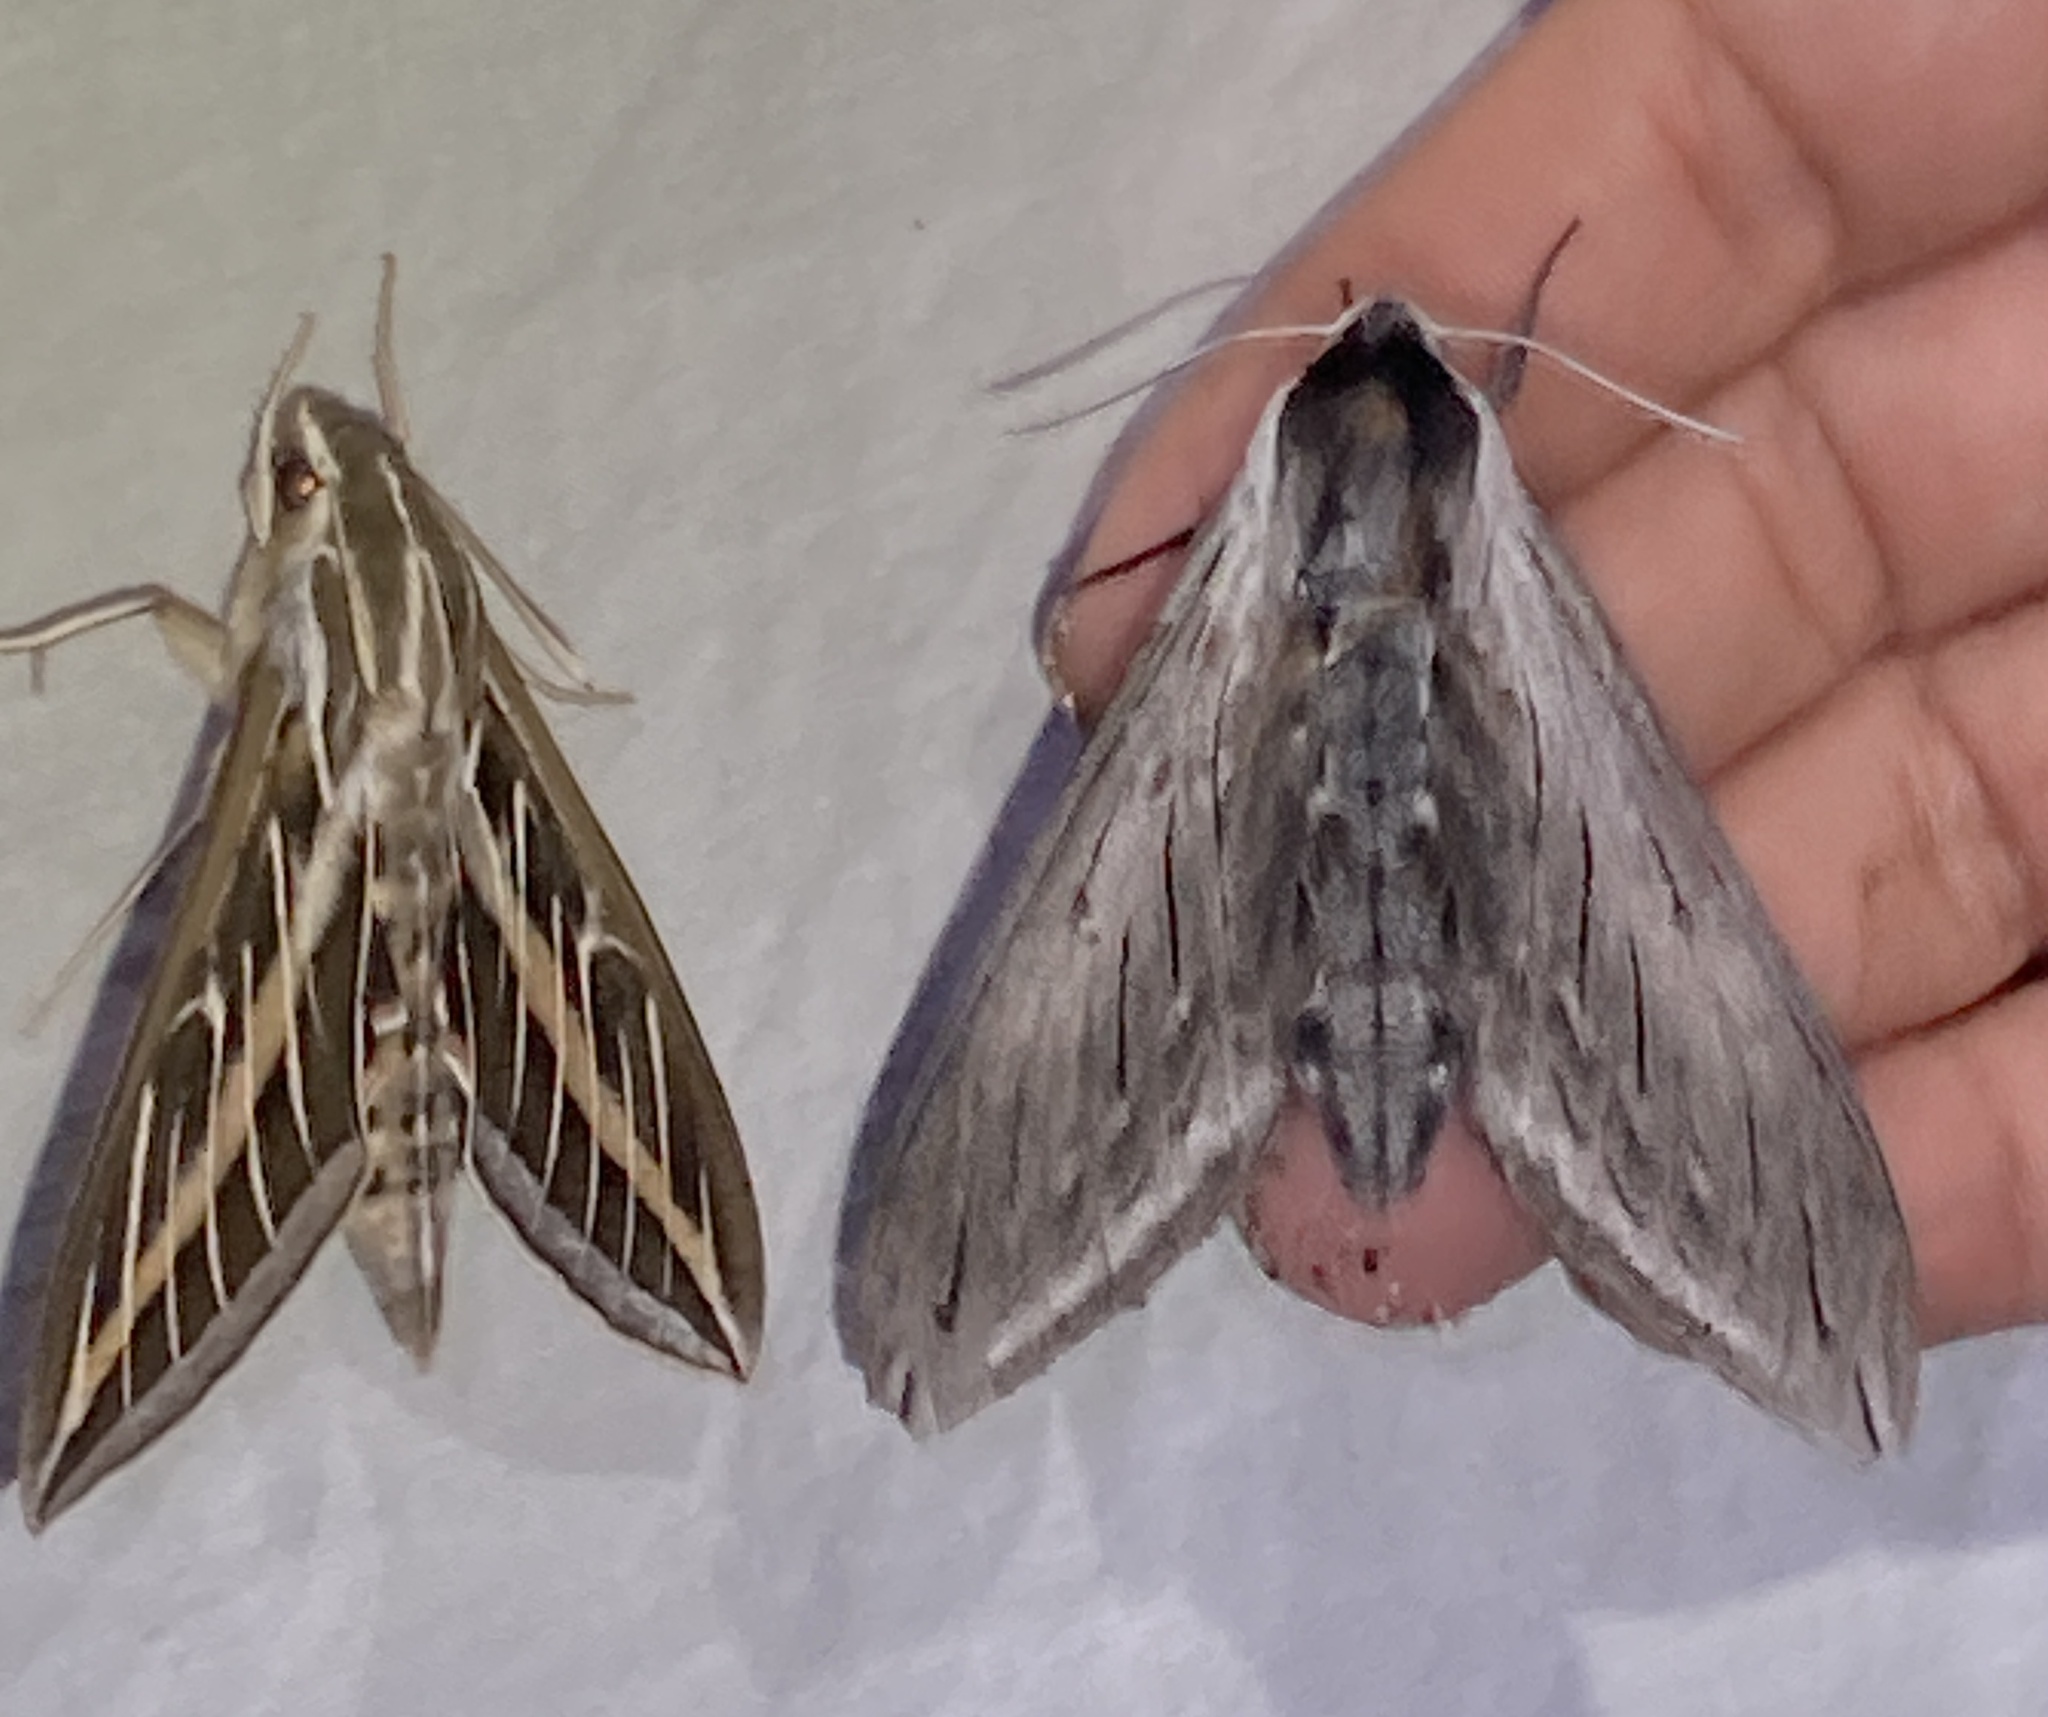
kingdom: Animalia
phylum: Arthropoda
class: Insecta
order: Lepidoptera
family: Sphingidae
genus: Hyles
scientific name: Hyles lineata
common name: White-lined sphinx
